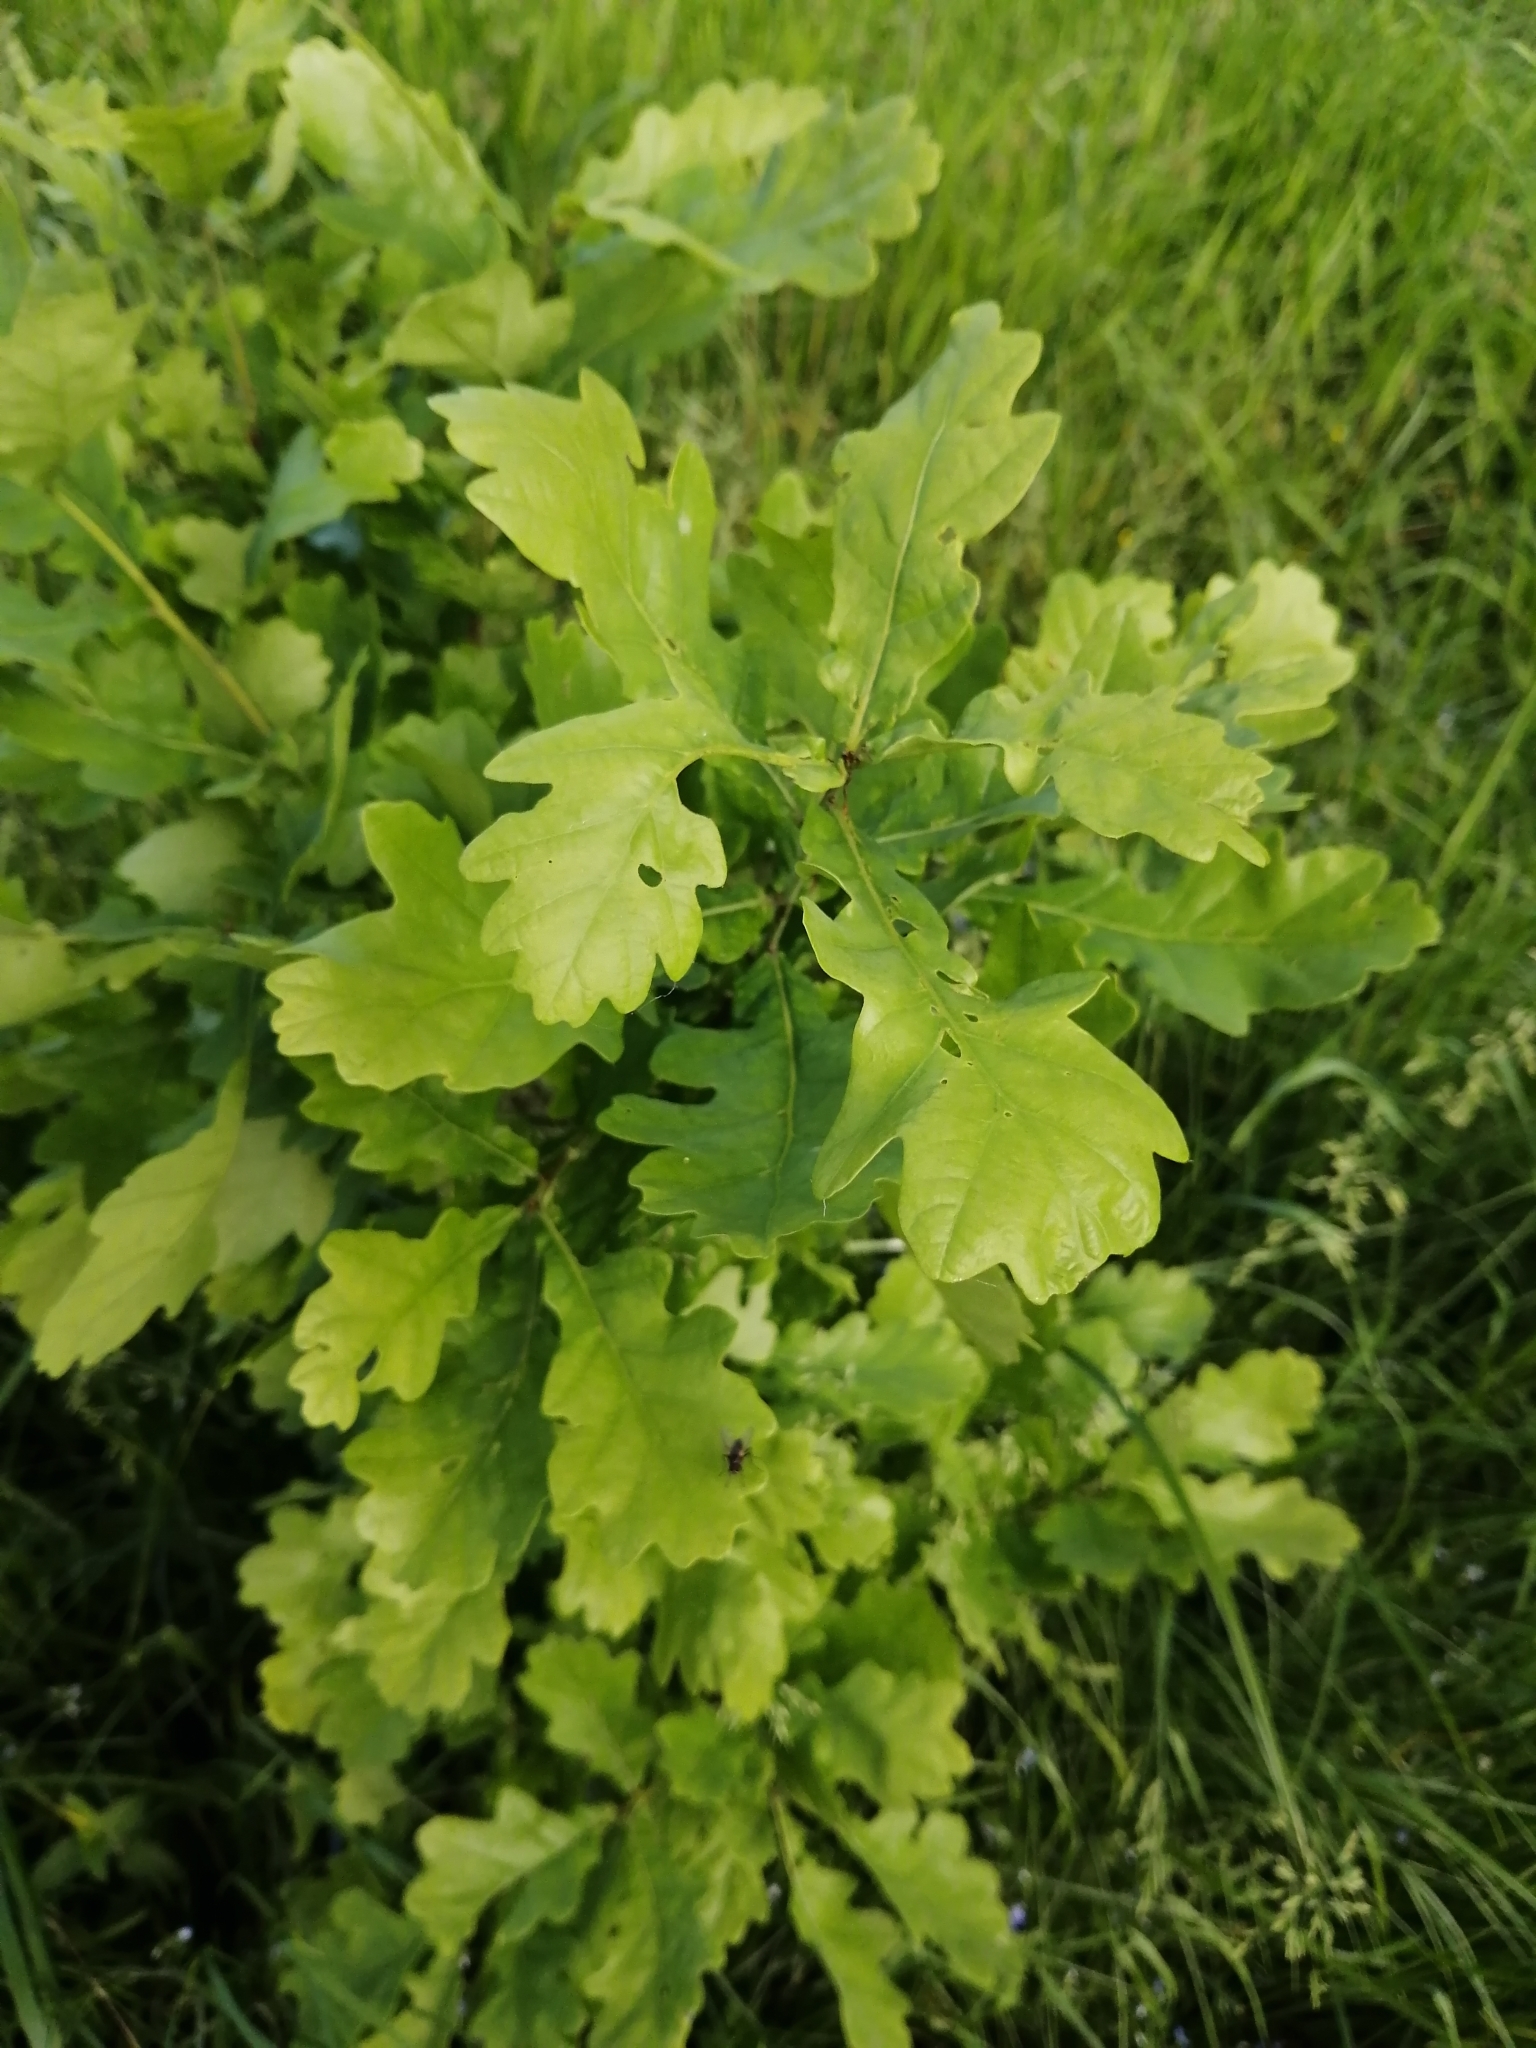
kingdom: Plantae
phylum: Tracheophyta
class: Magnoliopsida
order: Fagales
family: Fagaceae
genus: Quercus
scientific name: Quercus robur
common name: Pedunculate oak
